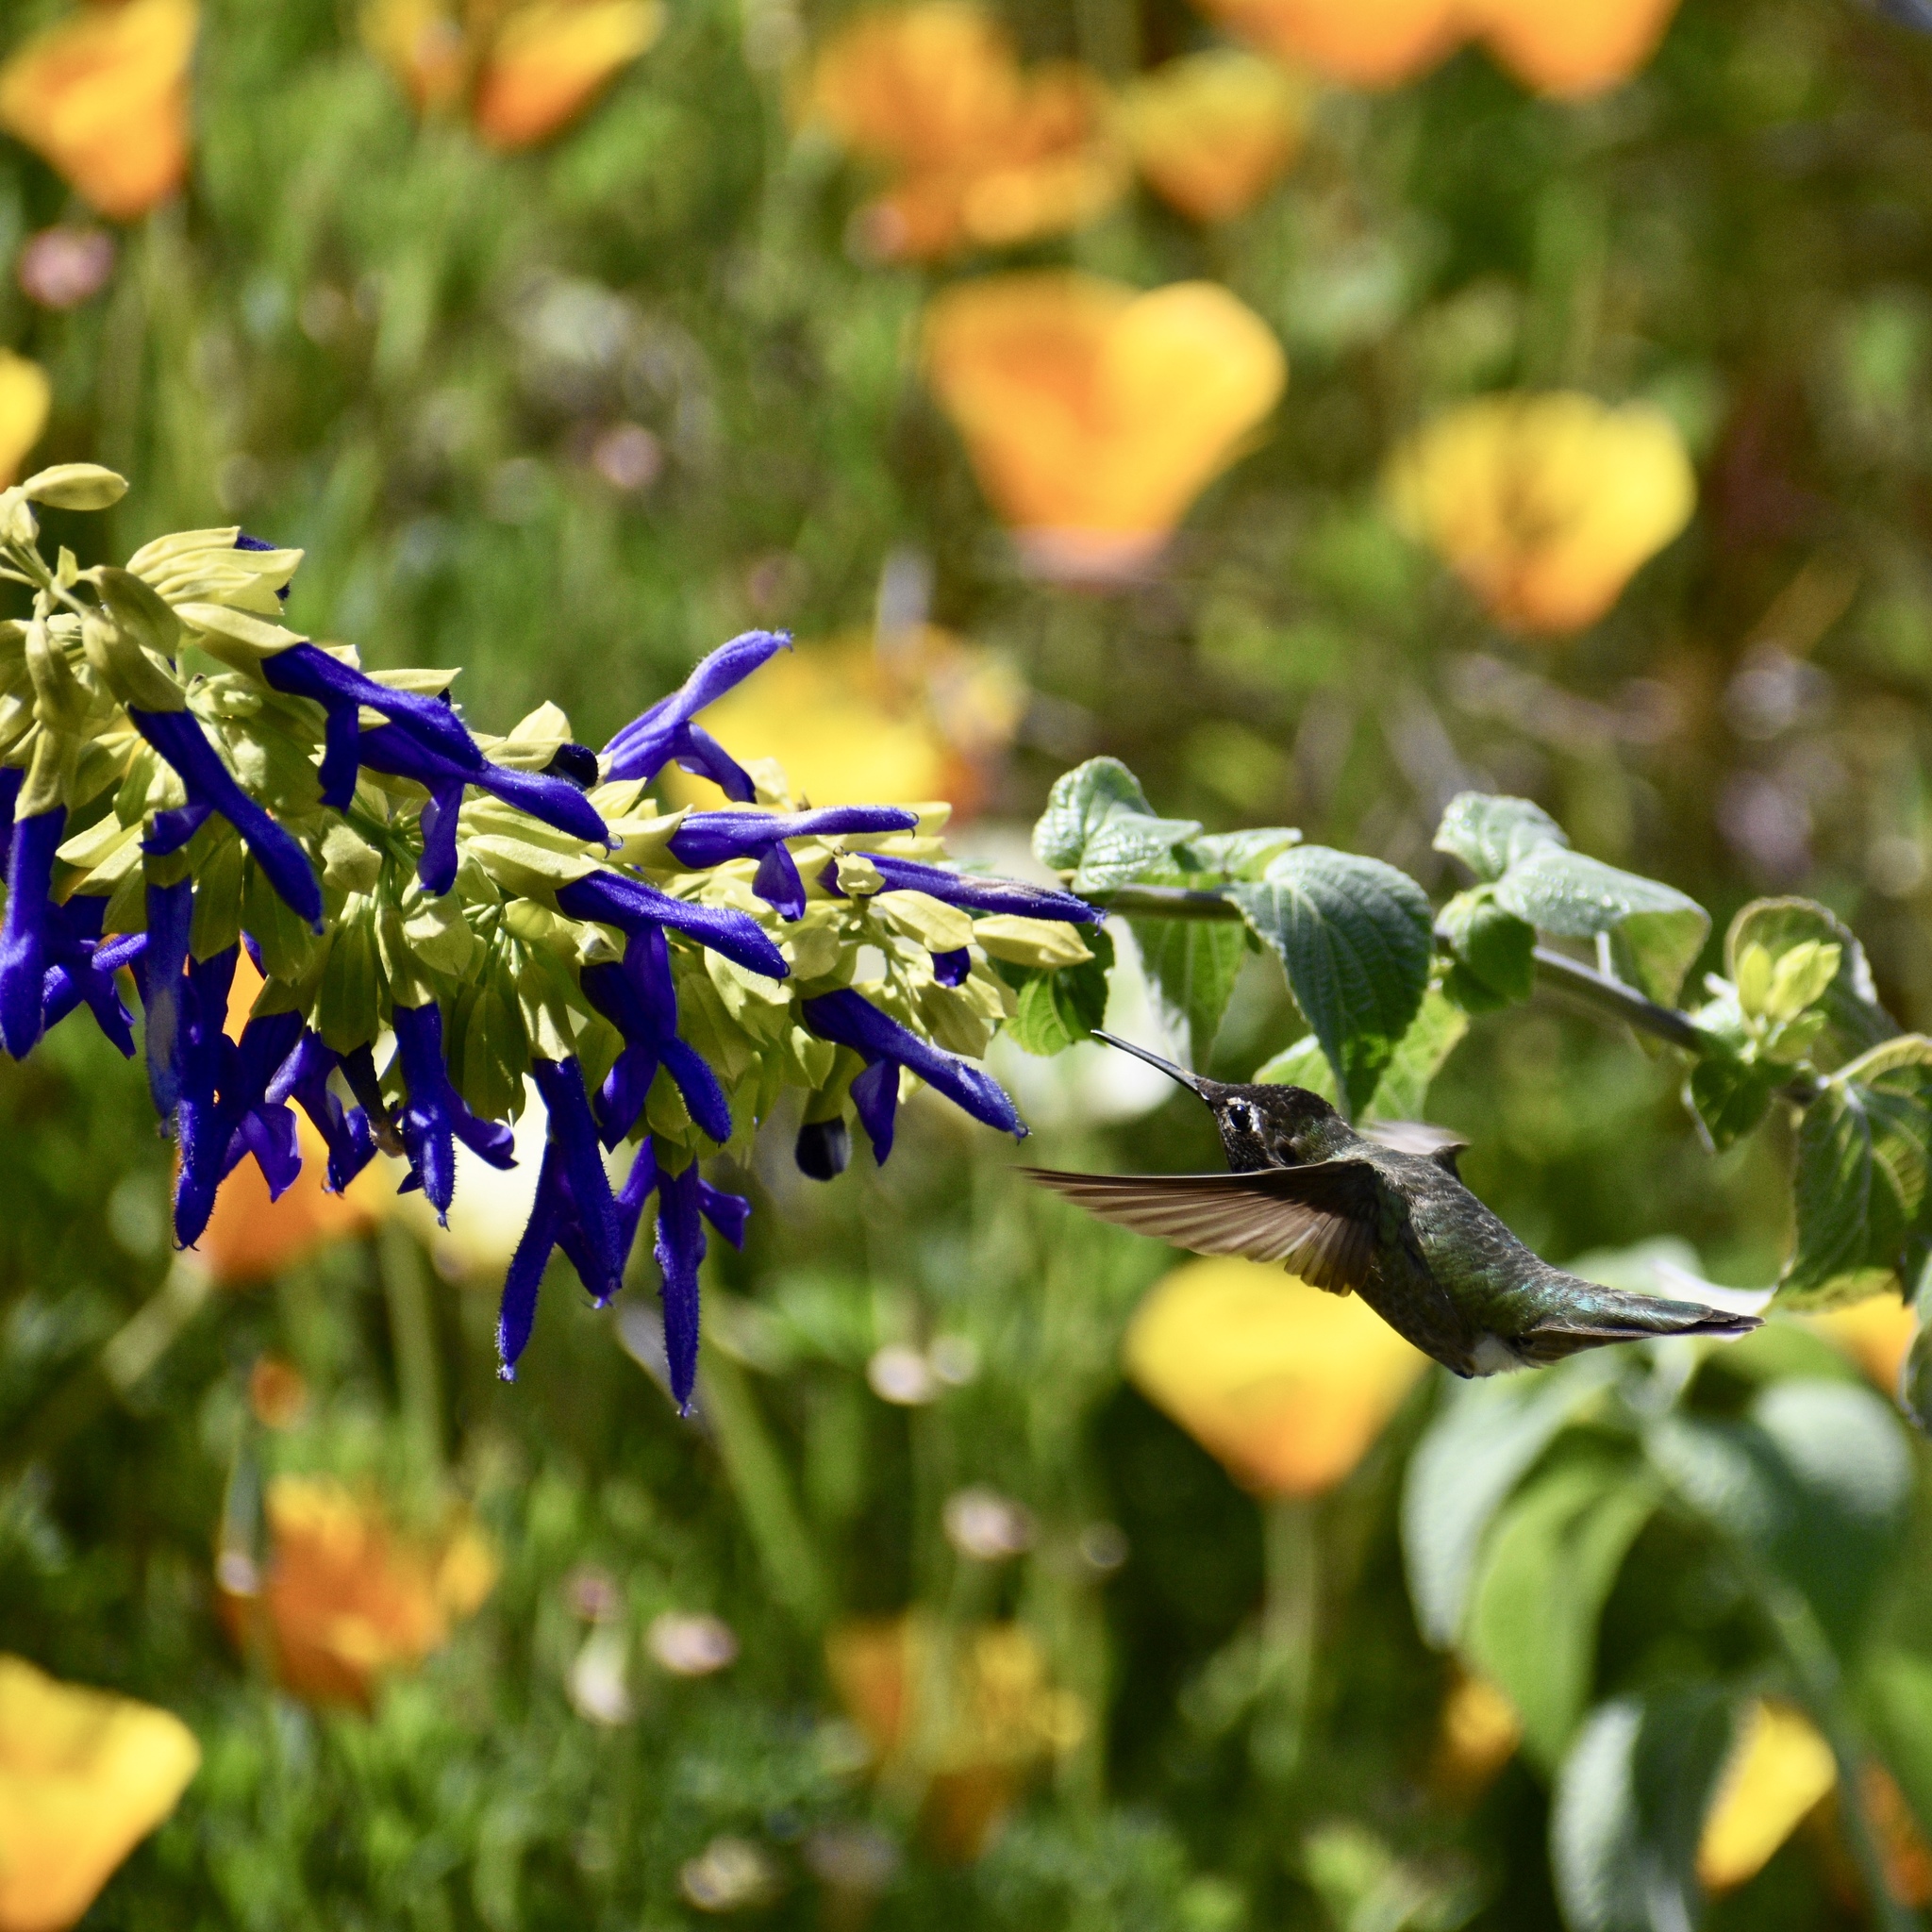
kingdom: Animalia
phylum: Chordata
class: Aves
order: Apodiformes
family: Trochilidae
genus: Calypte
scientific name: Calypte anna
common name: Anna's hummingbird
